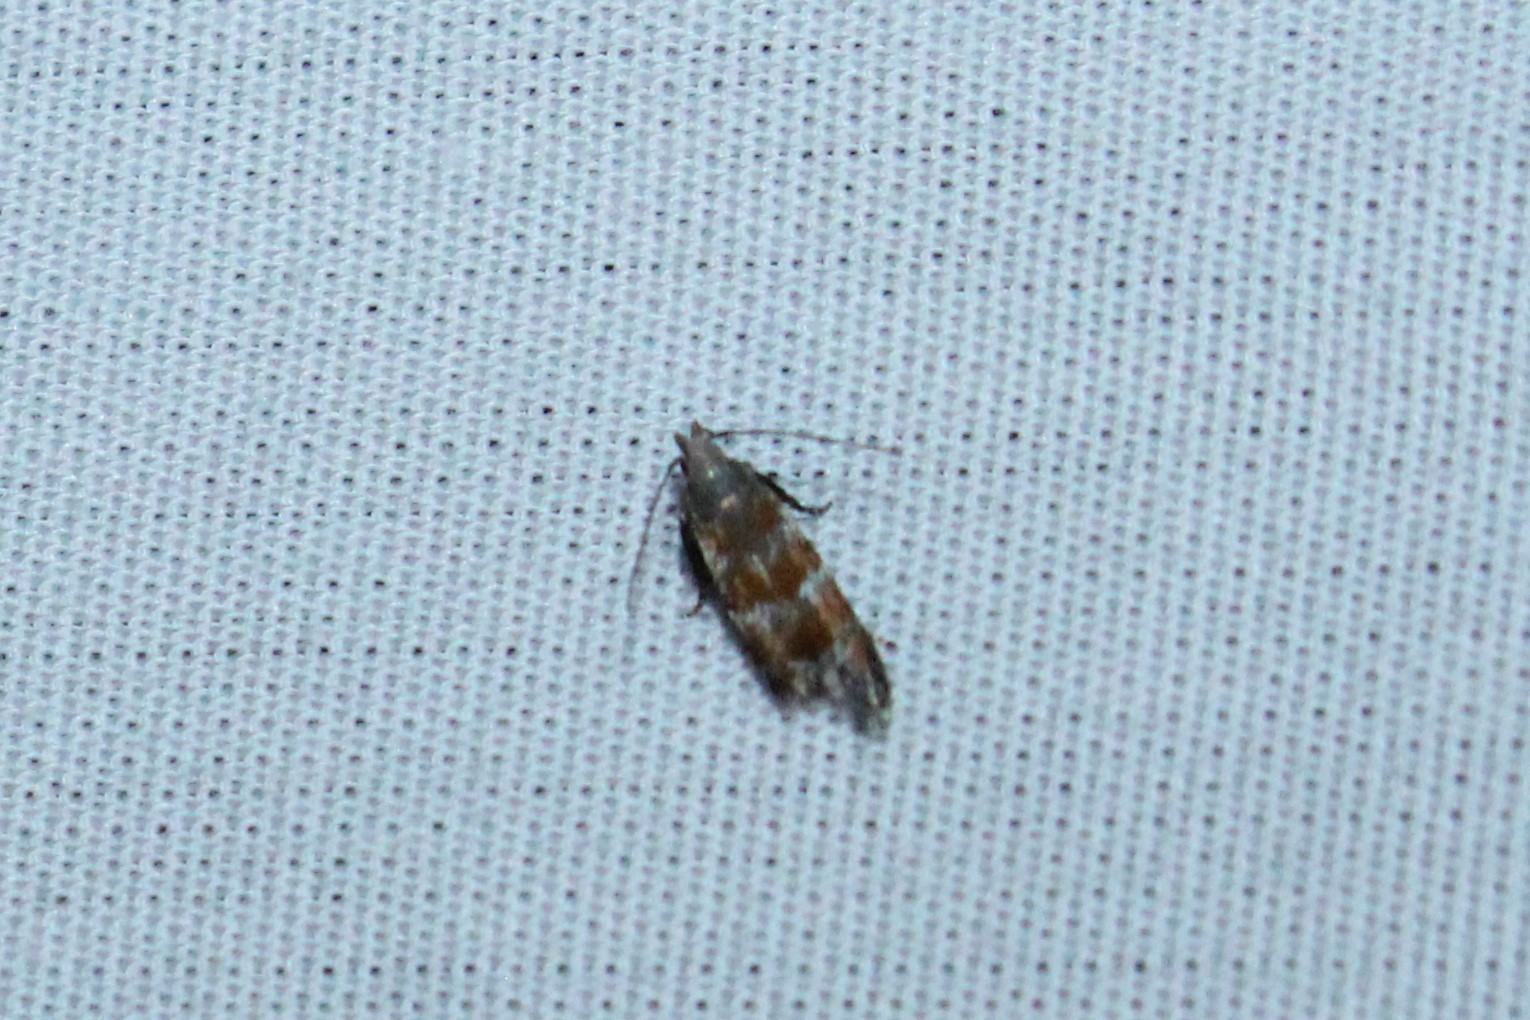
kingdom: Animalia
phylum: Arthropoda
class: Insecta
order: Lepidoptera
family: Gelechiidae
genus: Battaristis
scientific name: Battaristis vittella
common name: Orange stripe-backed moth
